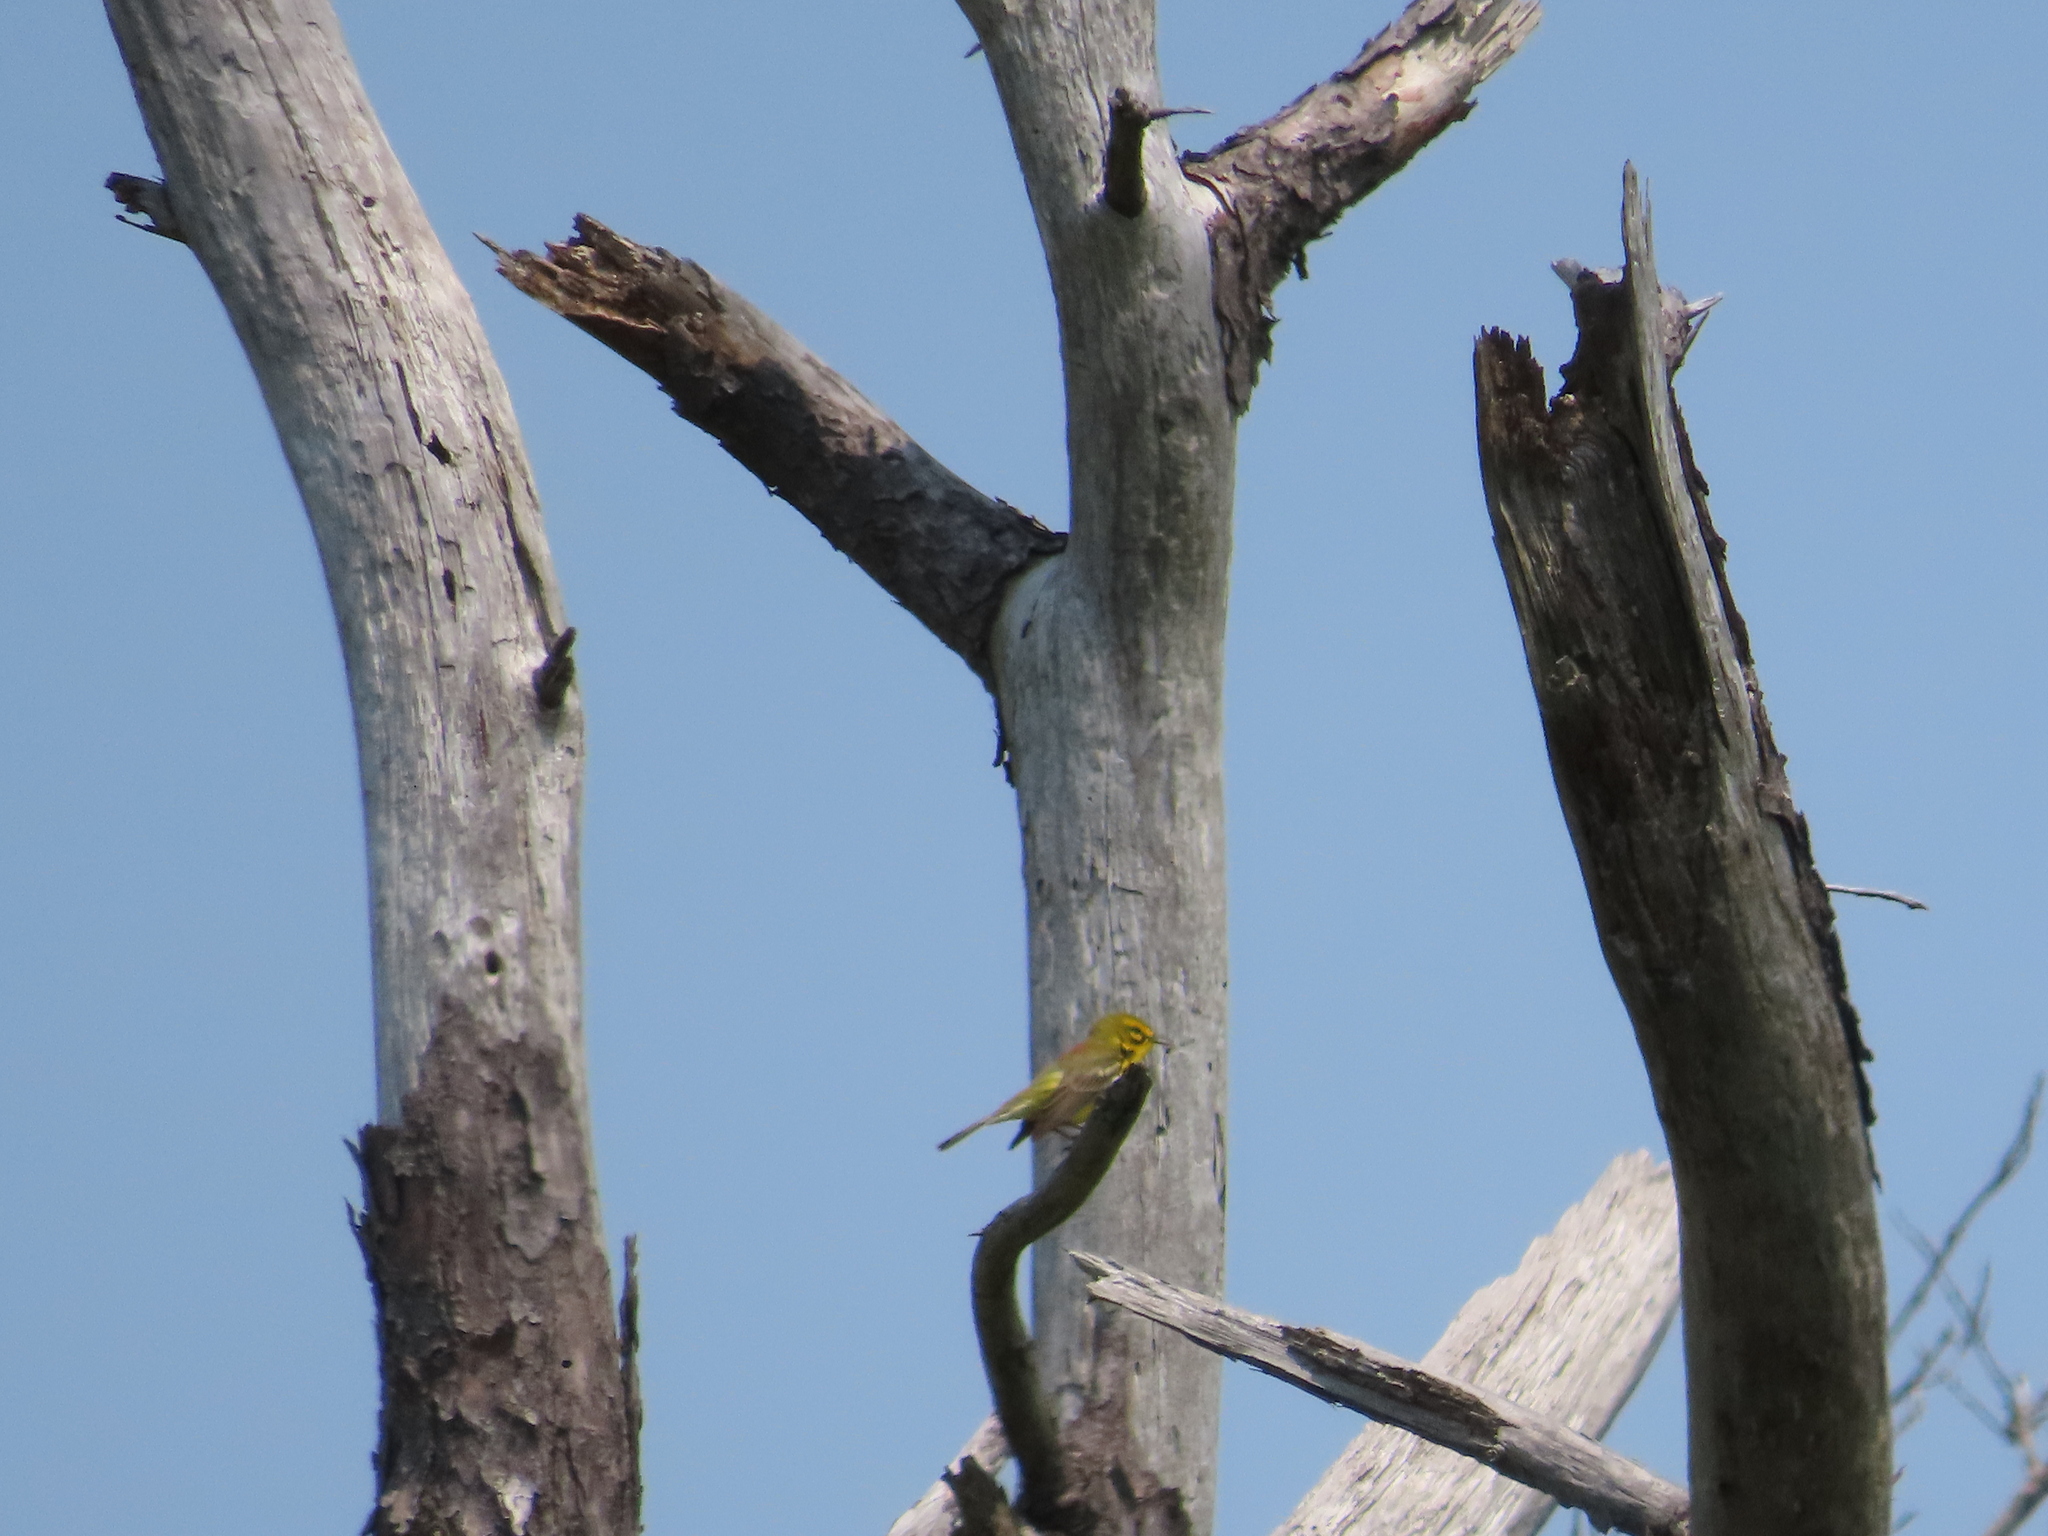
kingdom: Animalia
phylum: Chordata
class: Aves
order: Passeriformes
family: Parulidae
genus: Setophaga
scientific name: Setophaga discolor
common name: Prairie warbler
